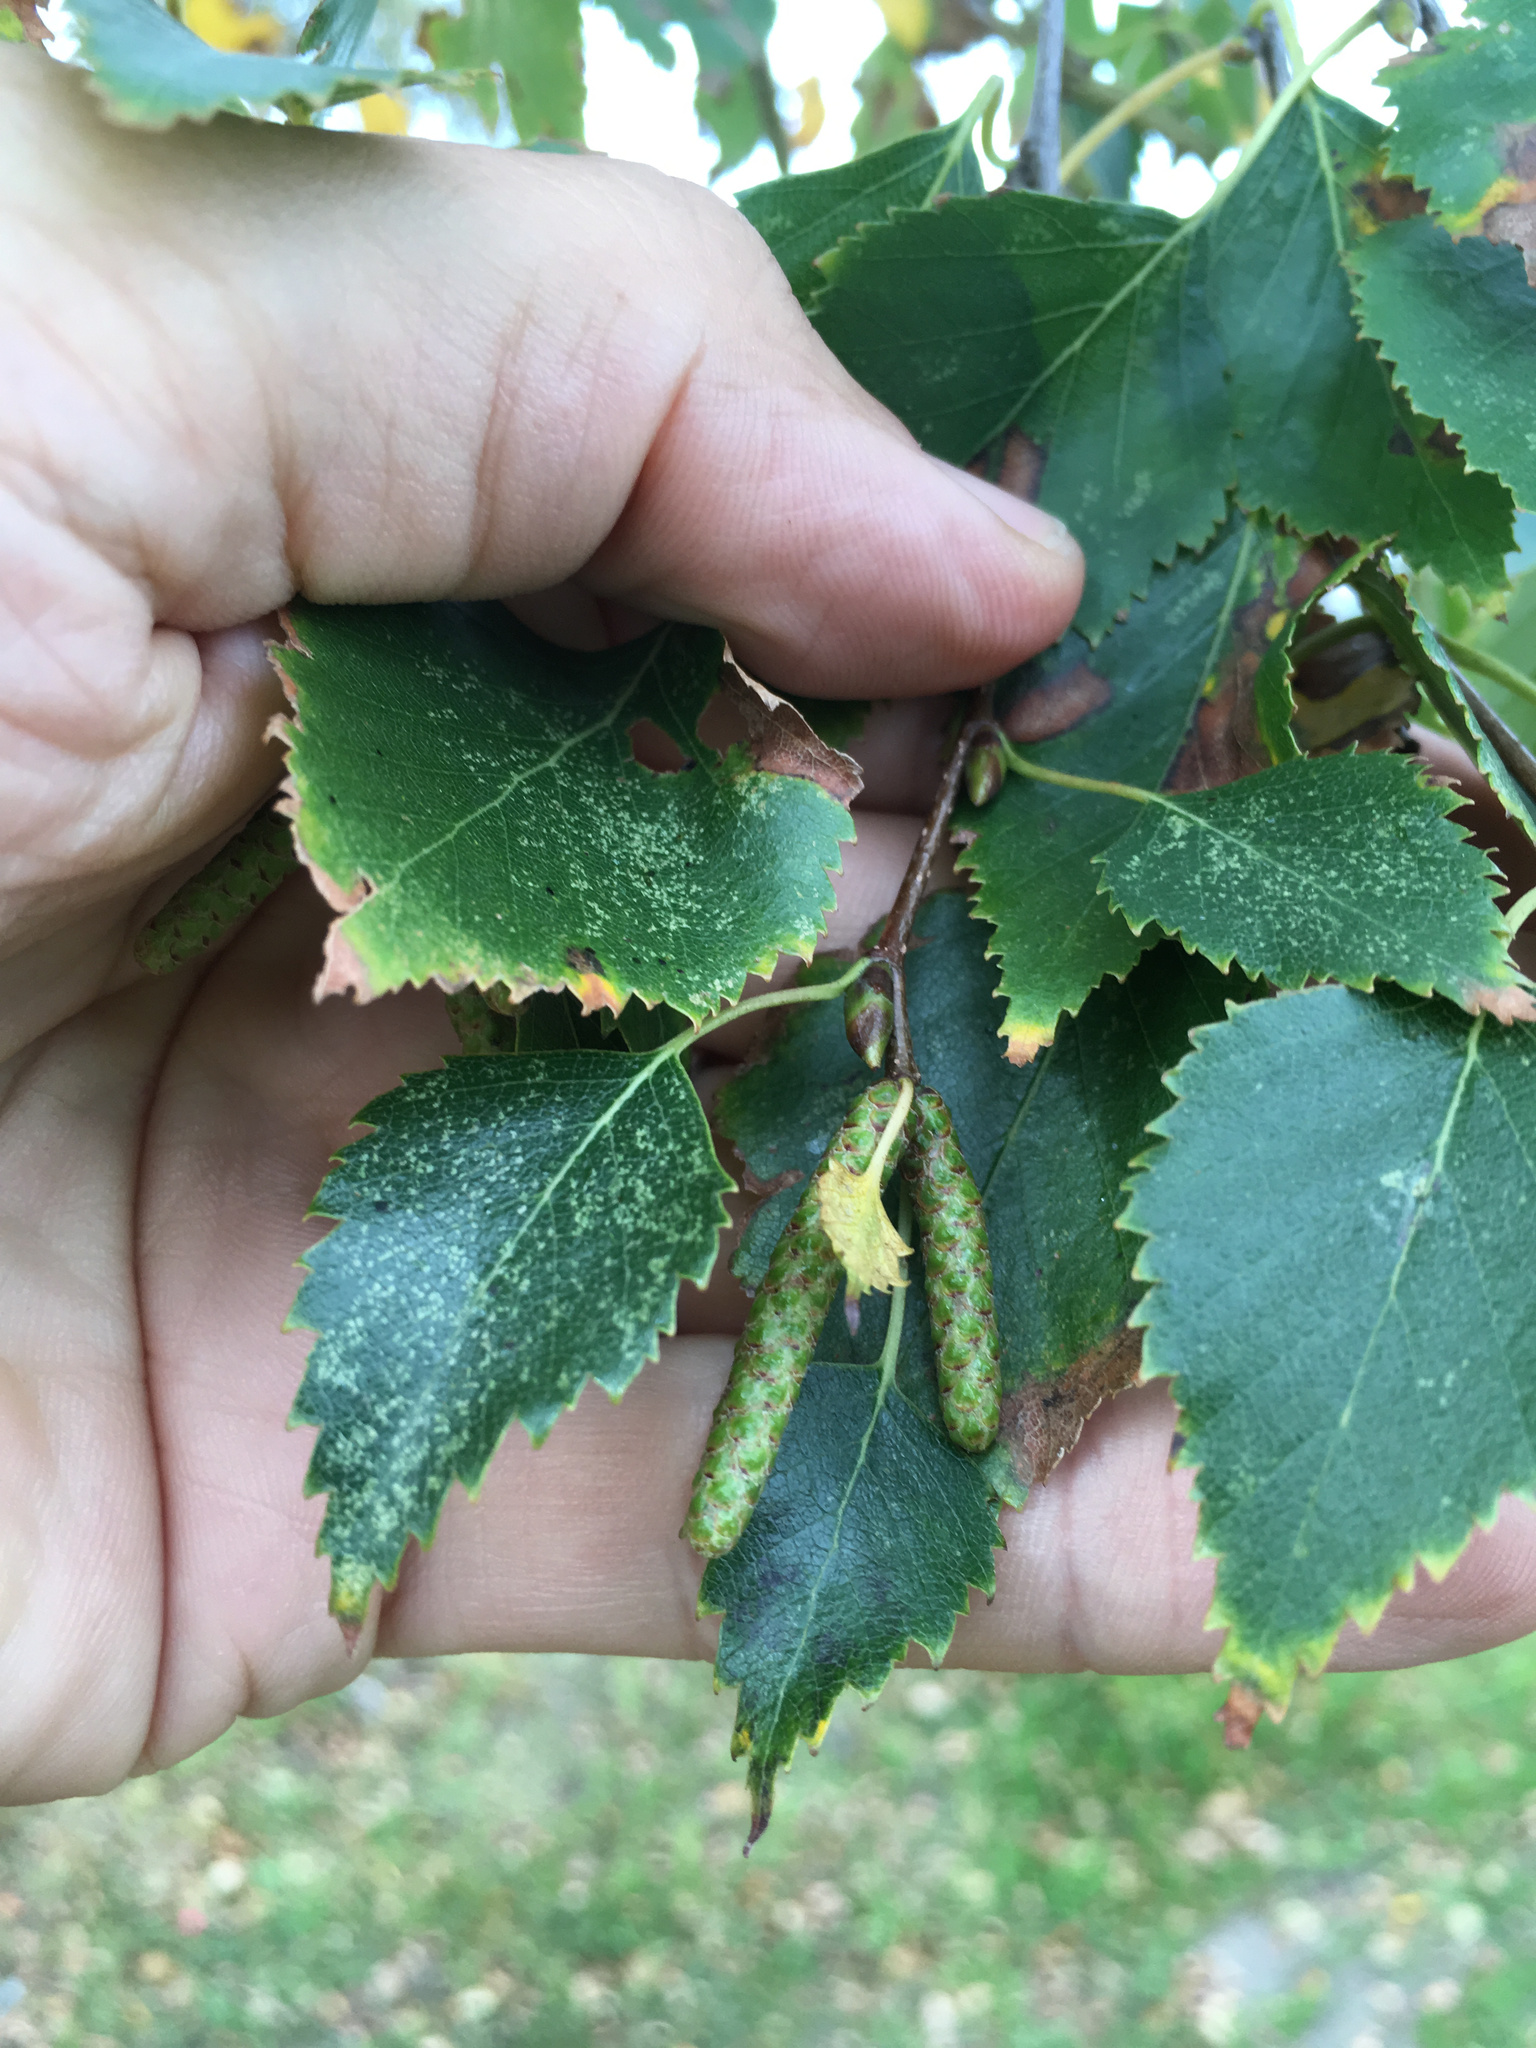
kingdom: Plantae
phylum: Tracheophyta
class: Magnoliopsida
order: Fagales
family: Betulaceae
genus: Betula
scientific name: Betula pendula
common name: Silver birch
